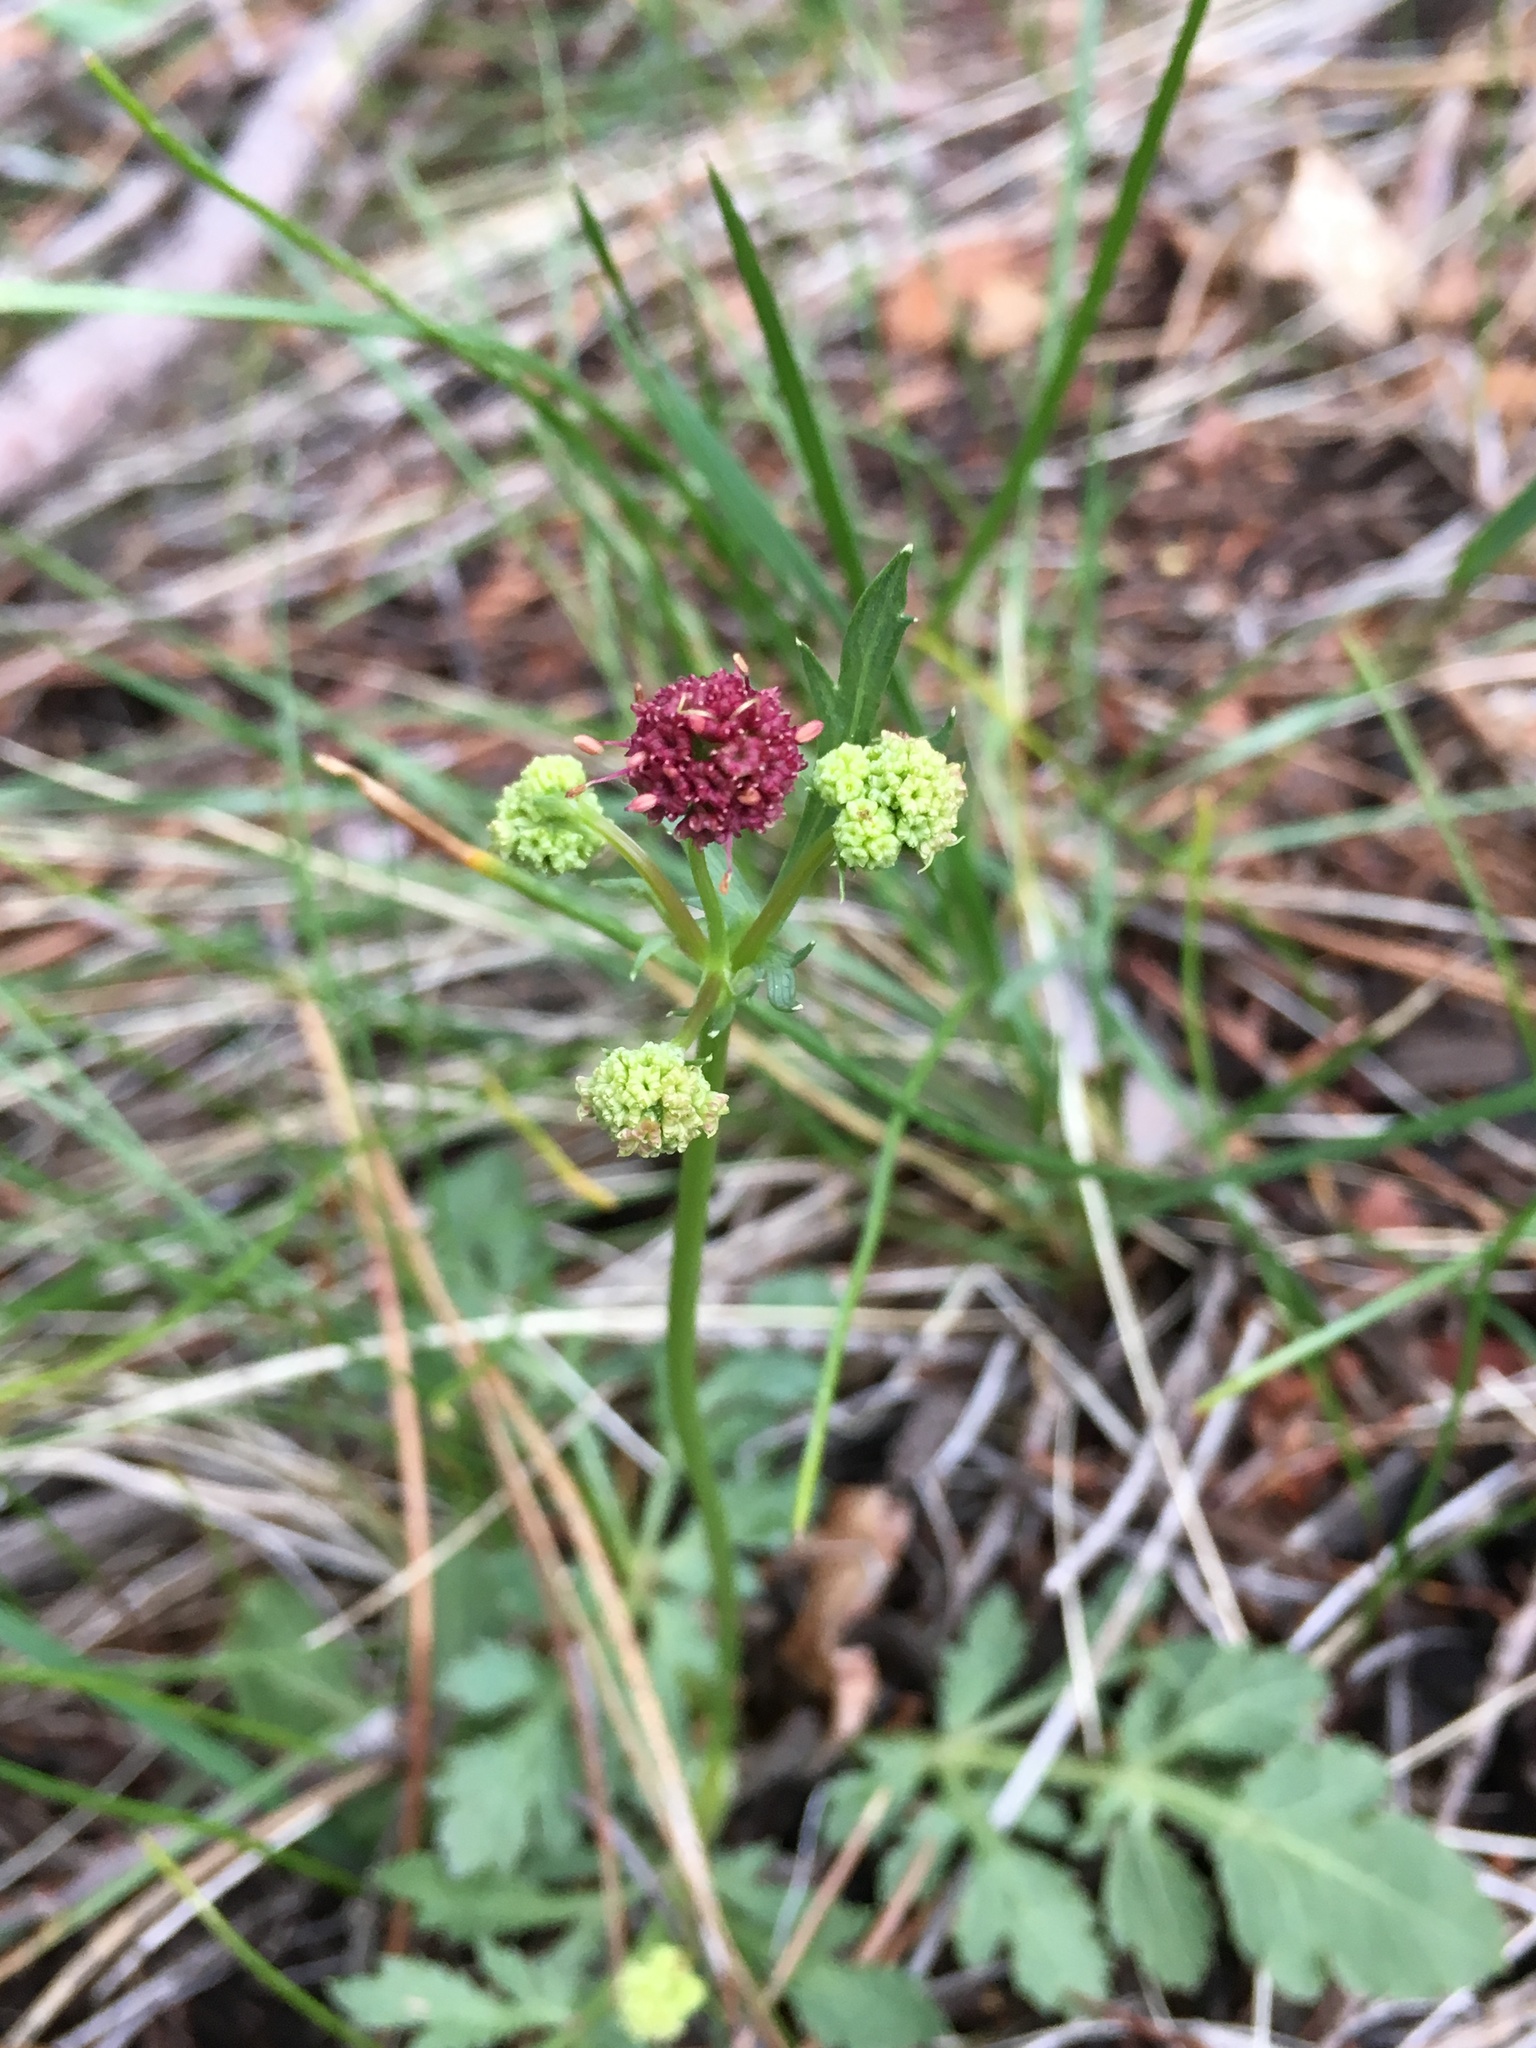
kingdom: Plantae
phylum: Tracheophyta
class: Magnoliopsida
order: Apiales
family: Apiaceae
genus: Sanicula
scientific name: Sanicula bipinnatifida
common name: Shoe-buttons
